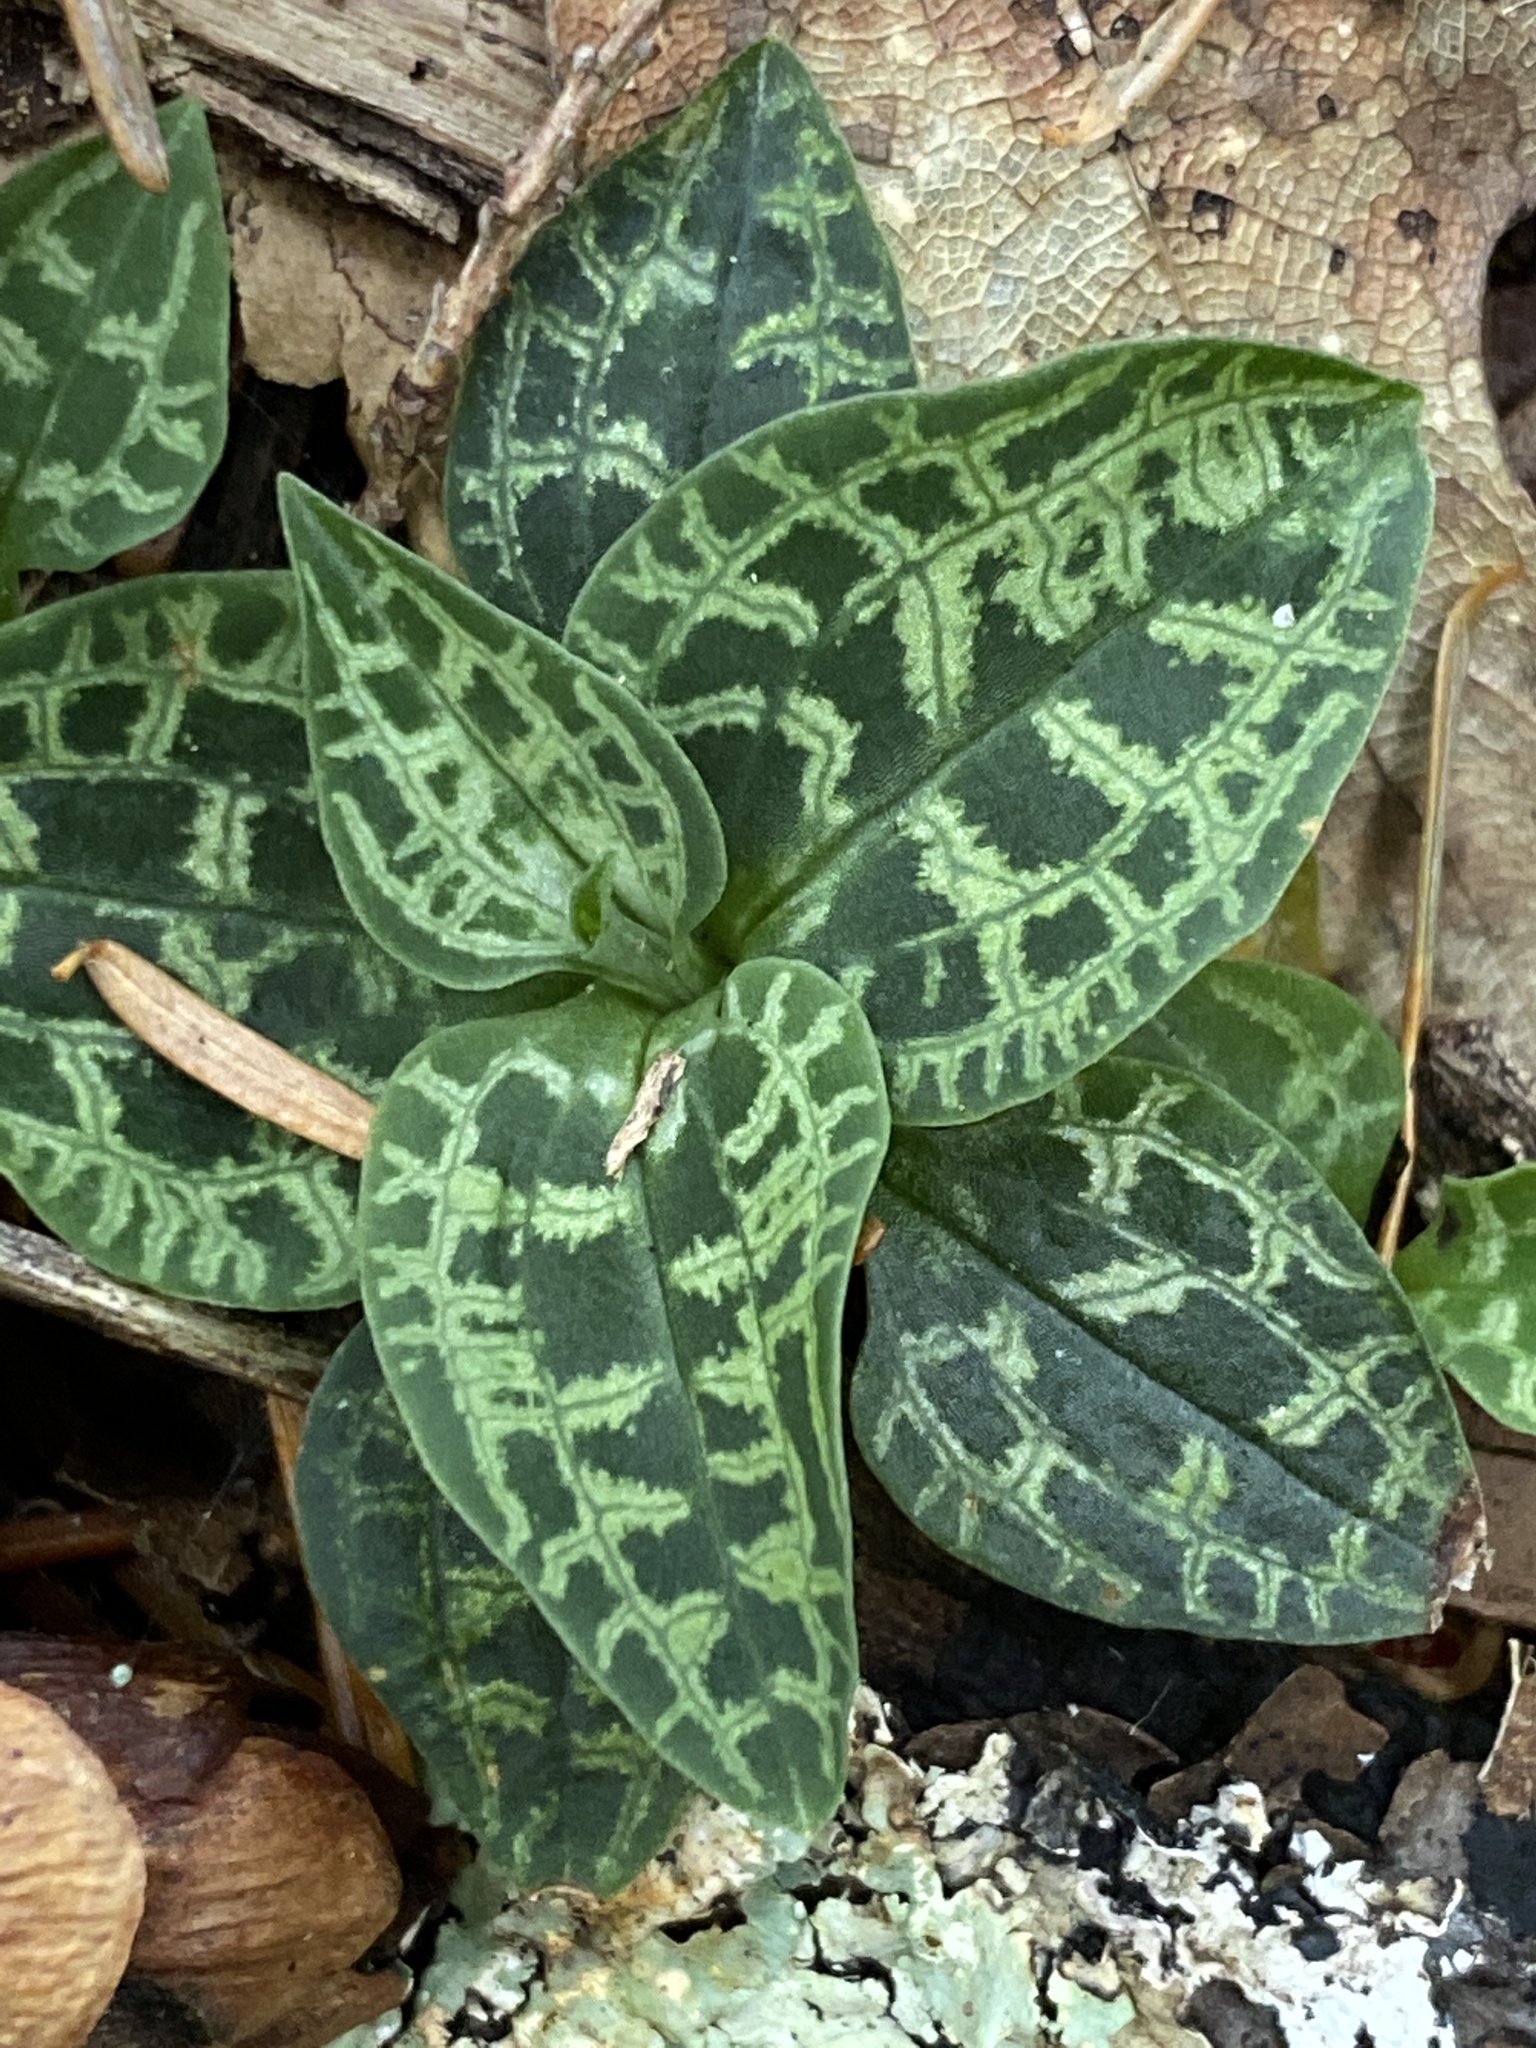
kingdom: Plantae
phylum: Tracheophyta
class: Liliopsida
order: Asparagales
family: Orchidaceae
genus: Goodyera
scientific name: Goodyera repens
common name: Creeping lady's-tresses
